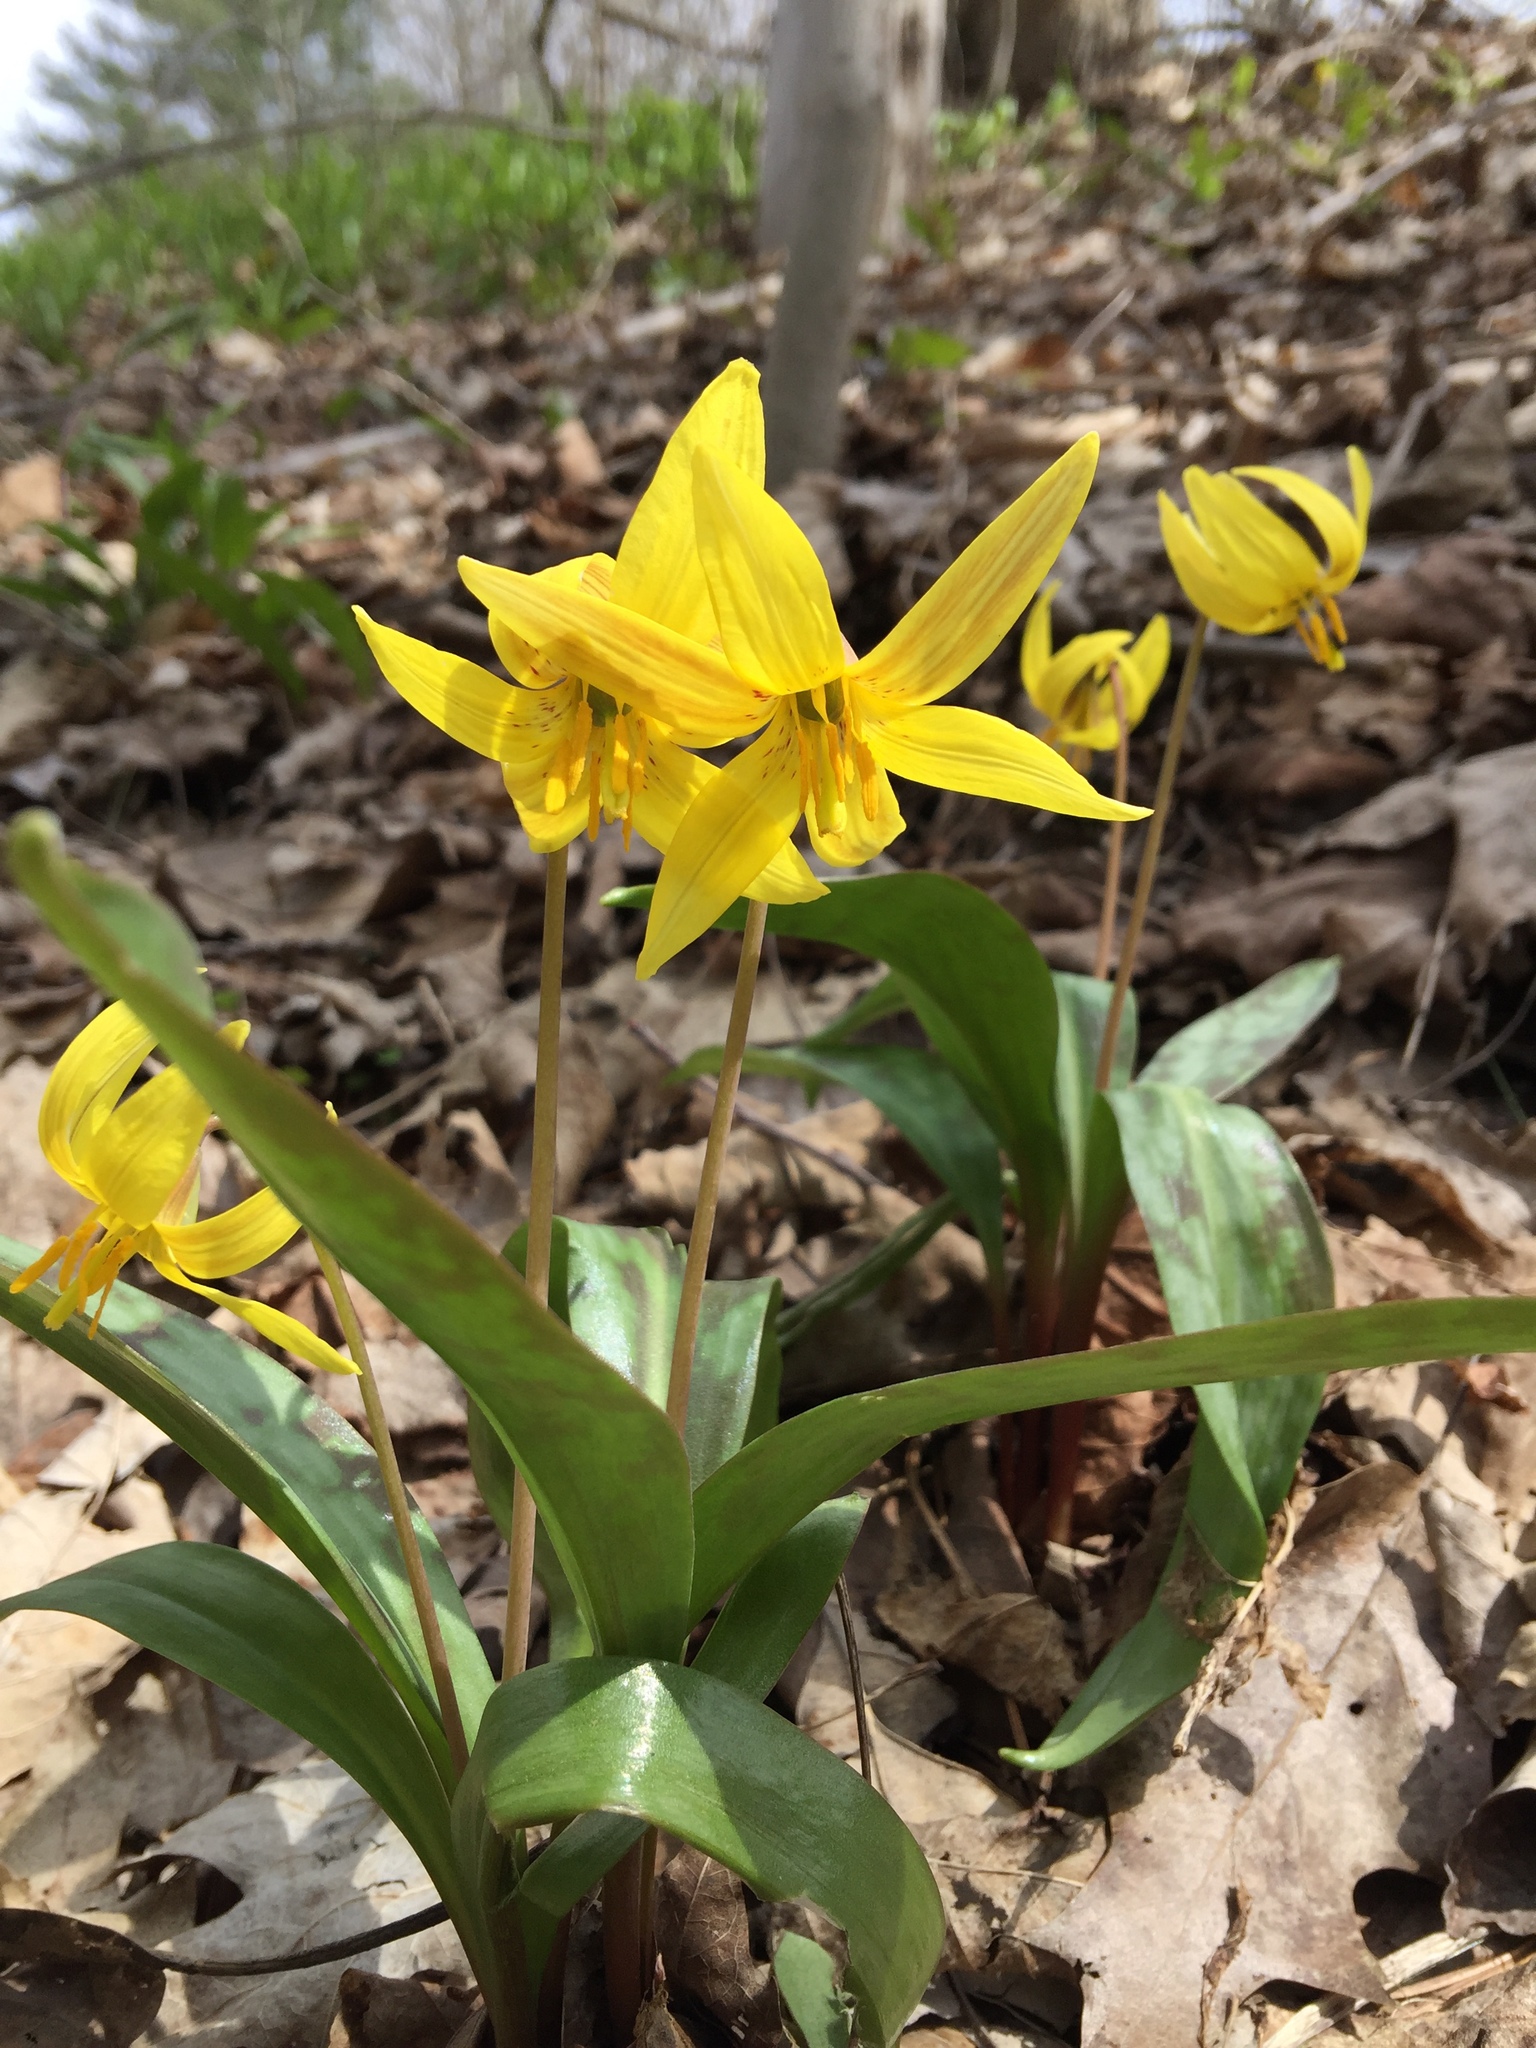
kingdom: Plantae
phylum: Tracheophyta
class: Liliopsida
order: Liliales
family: Liliaceae
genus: Erythronium
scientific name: Erythronium americanum
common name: Yellow adder's-tongue
